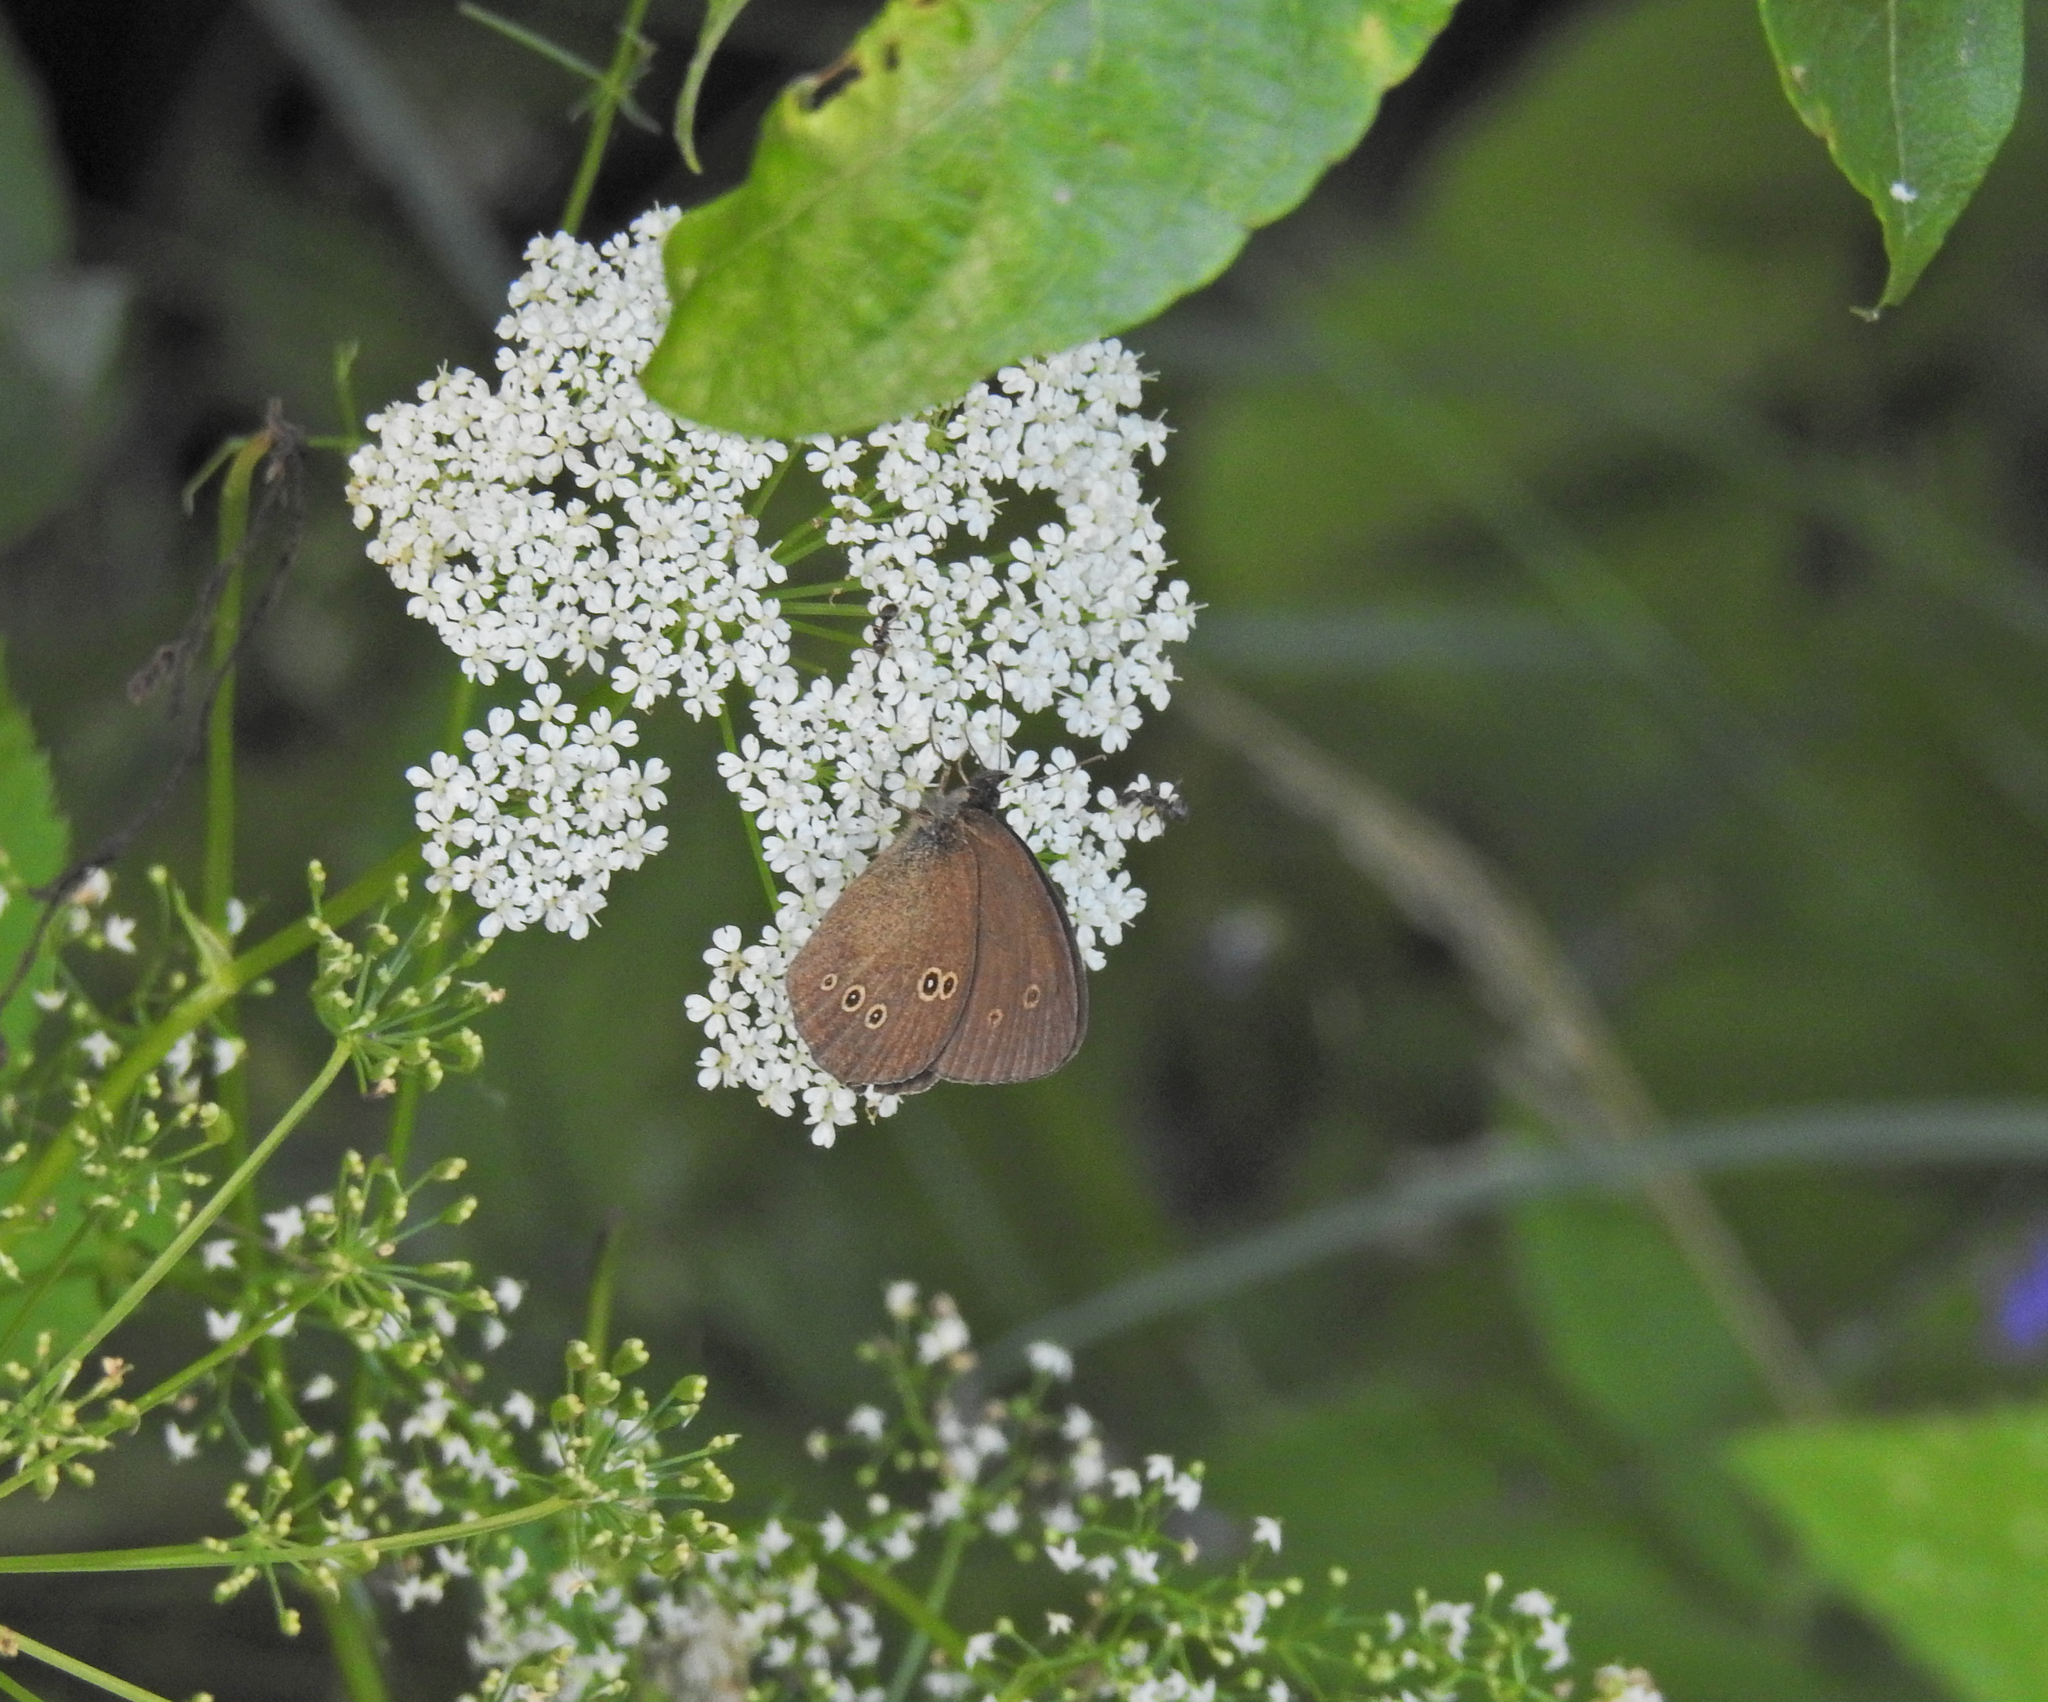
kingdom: Animalia
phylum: Arthropoda
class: Insecta
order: Lepidoptera
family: Nymphalidae
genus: Aphantopus
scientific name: Aphantopus hyperantus
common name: Ringlet
